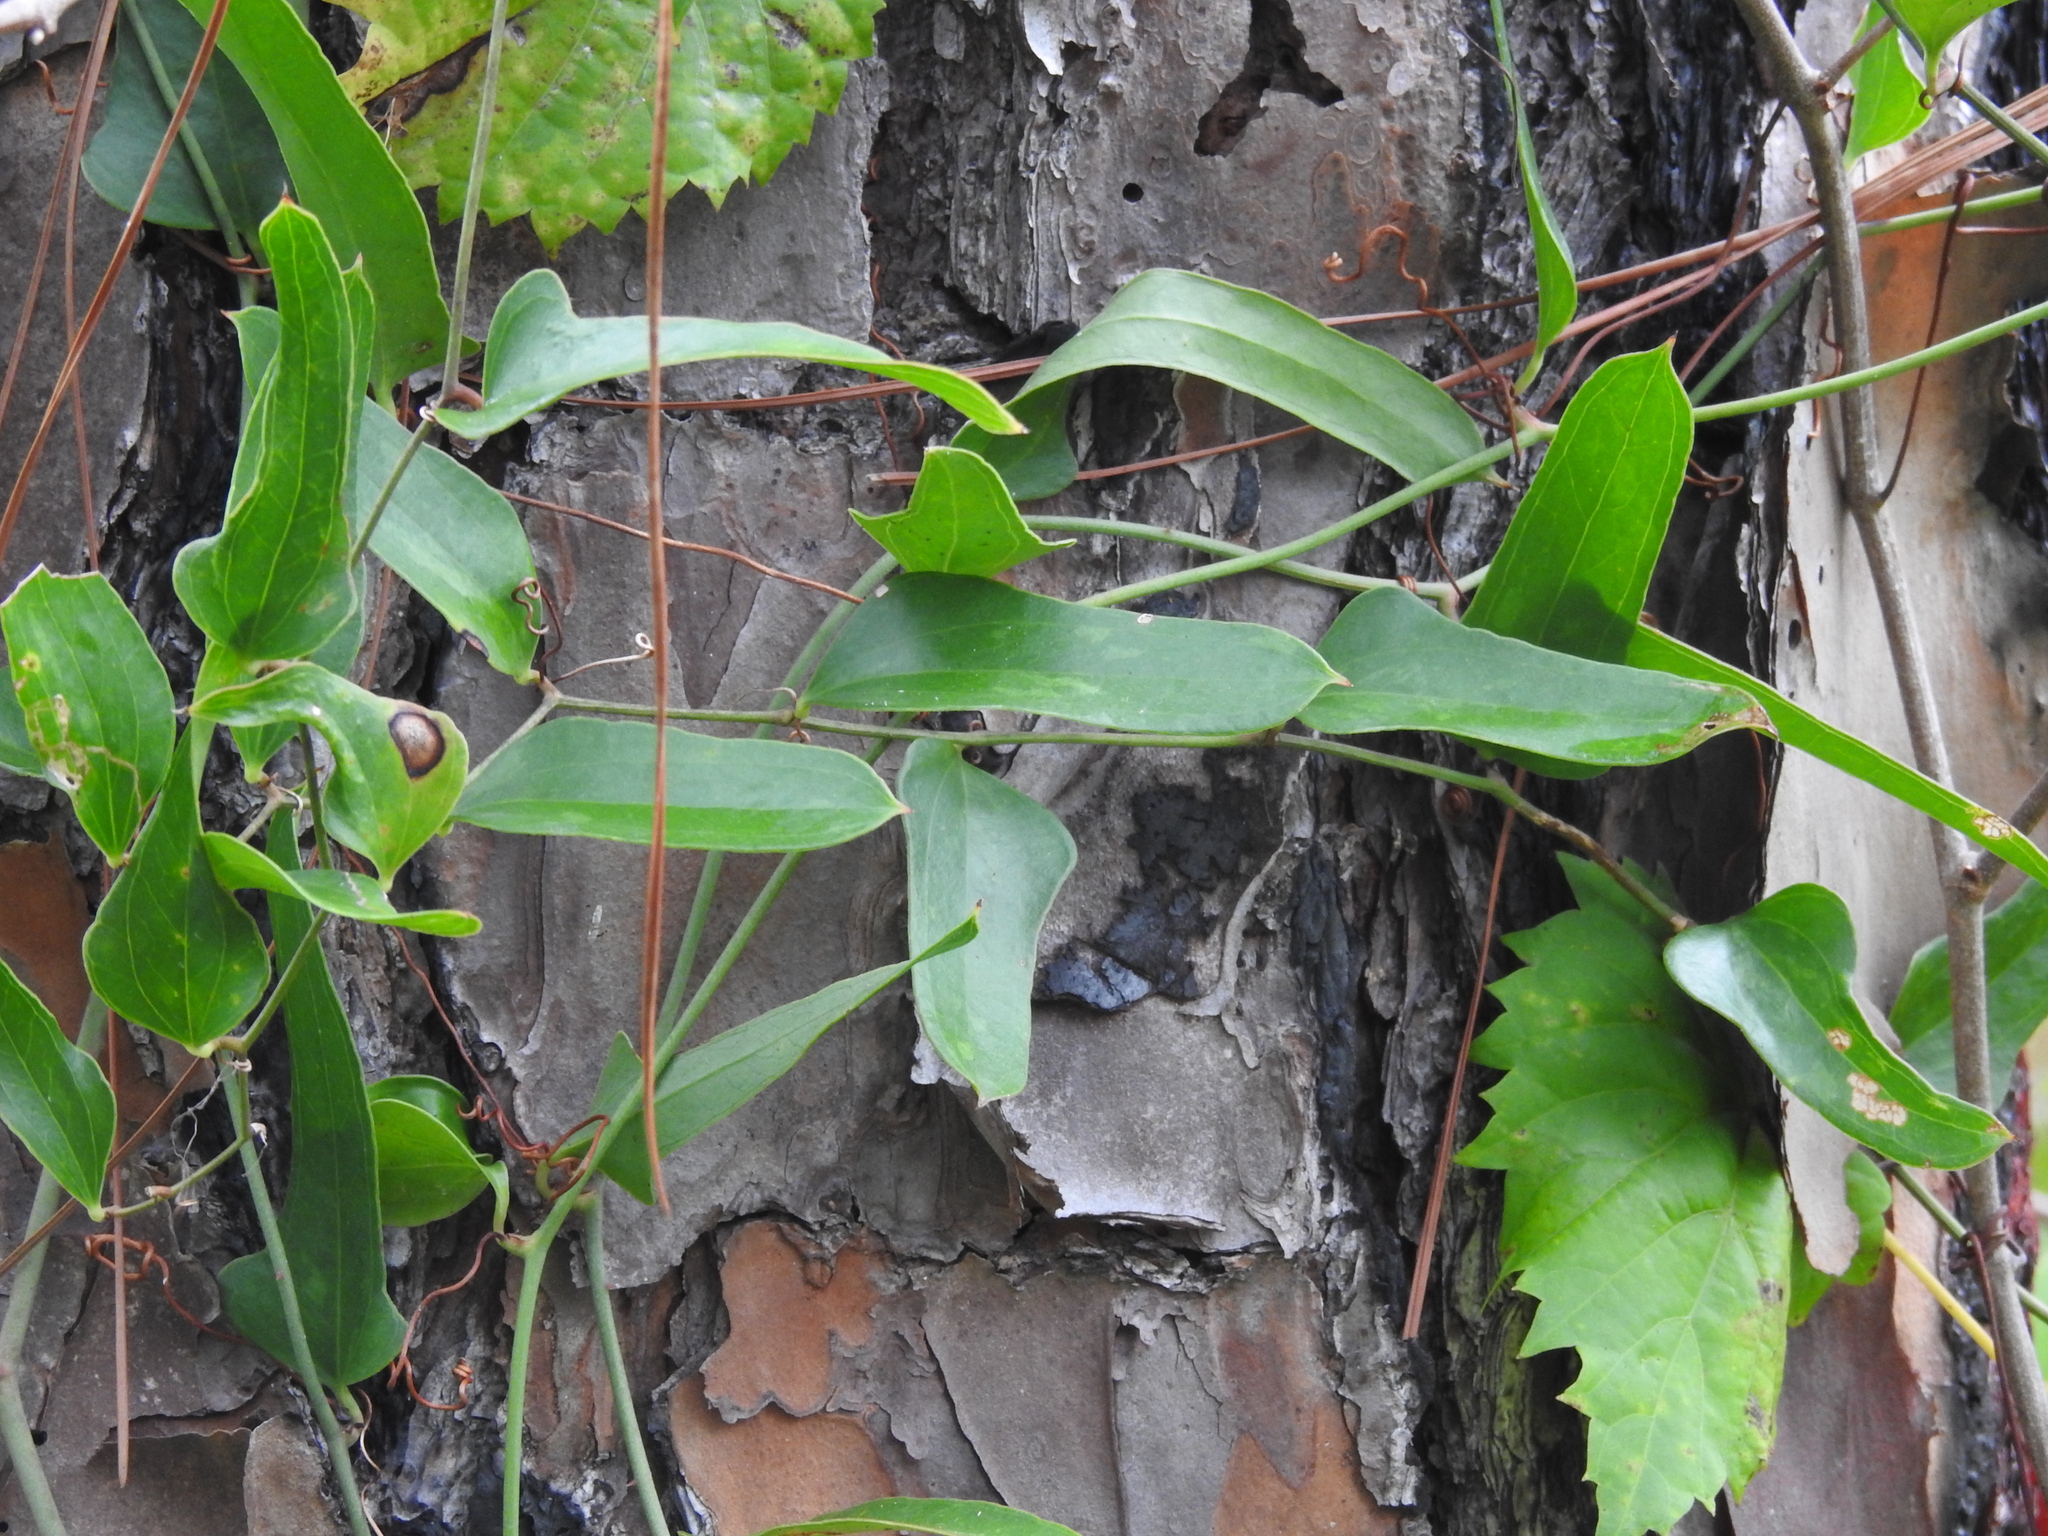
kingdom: Plantae
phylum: Tracheophyta
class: Liliopsida
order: Liliales
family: Smilacaceae
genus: Smilax
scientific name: Smilax auriculata
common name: Wild bamboo
